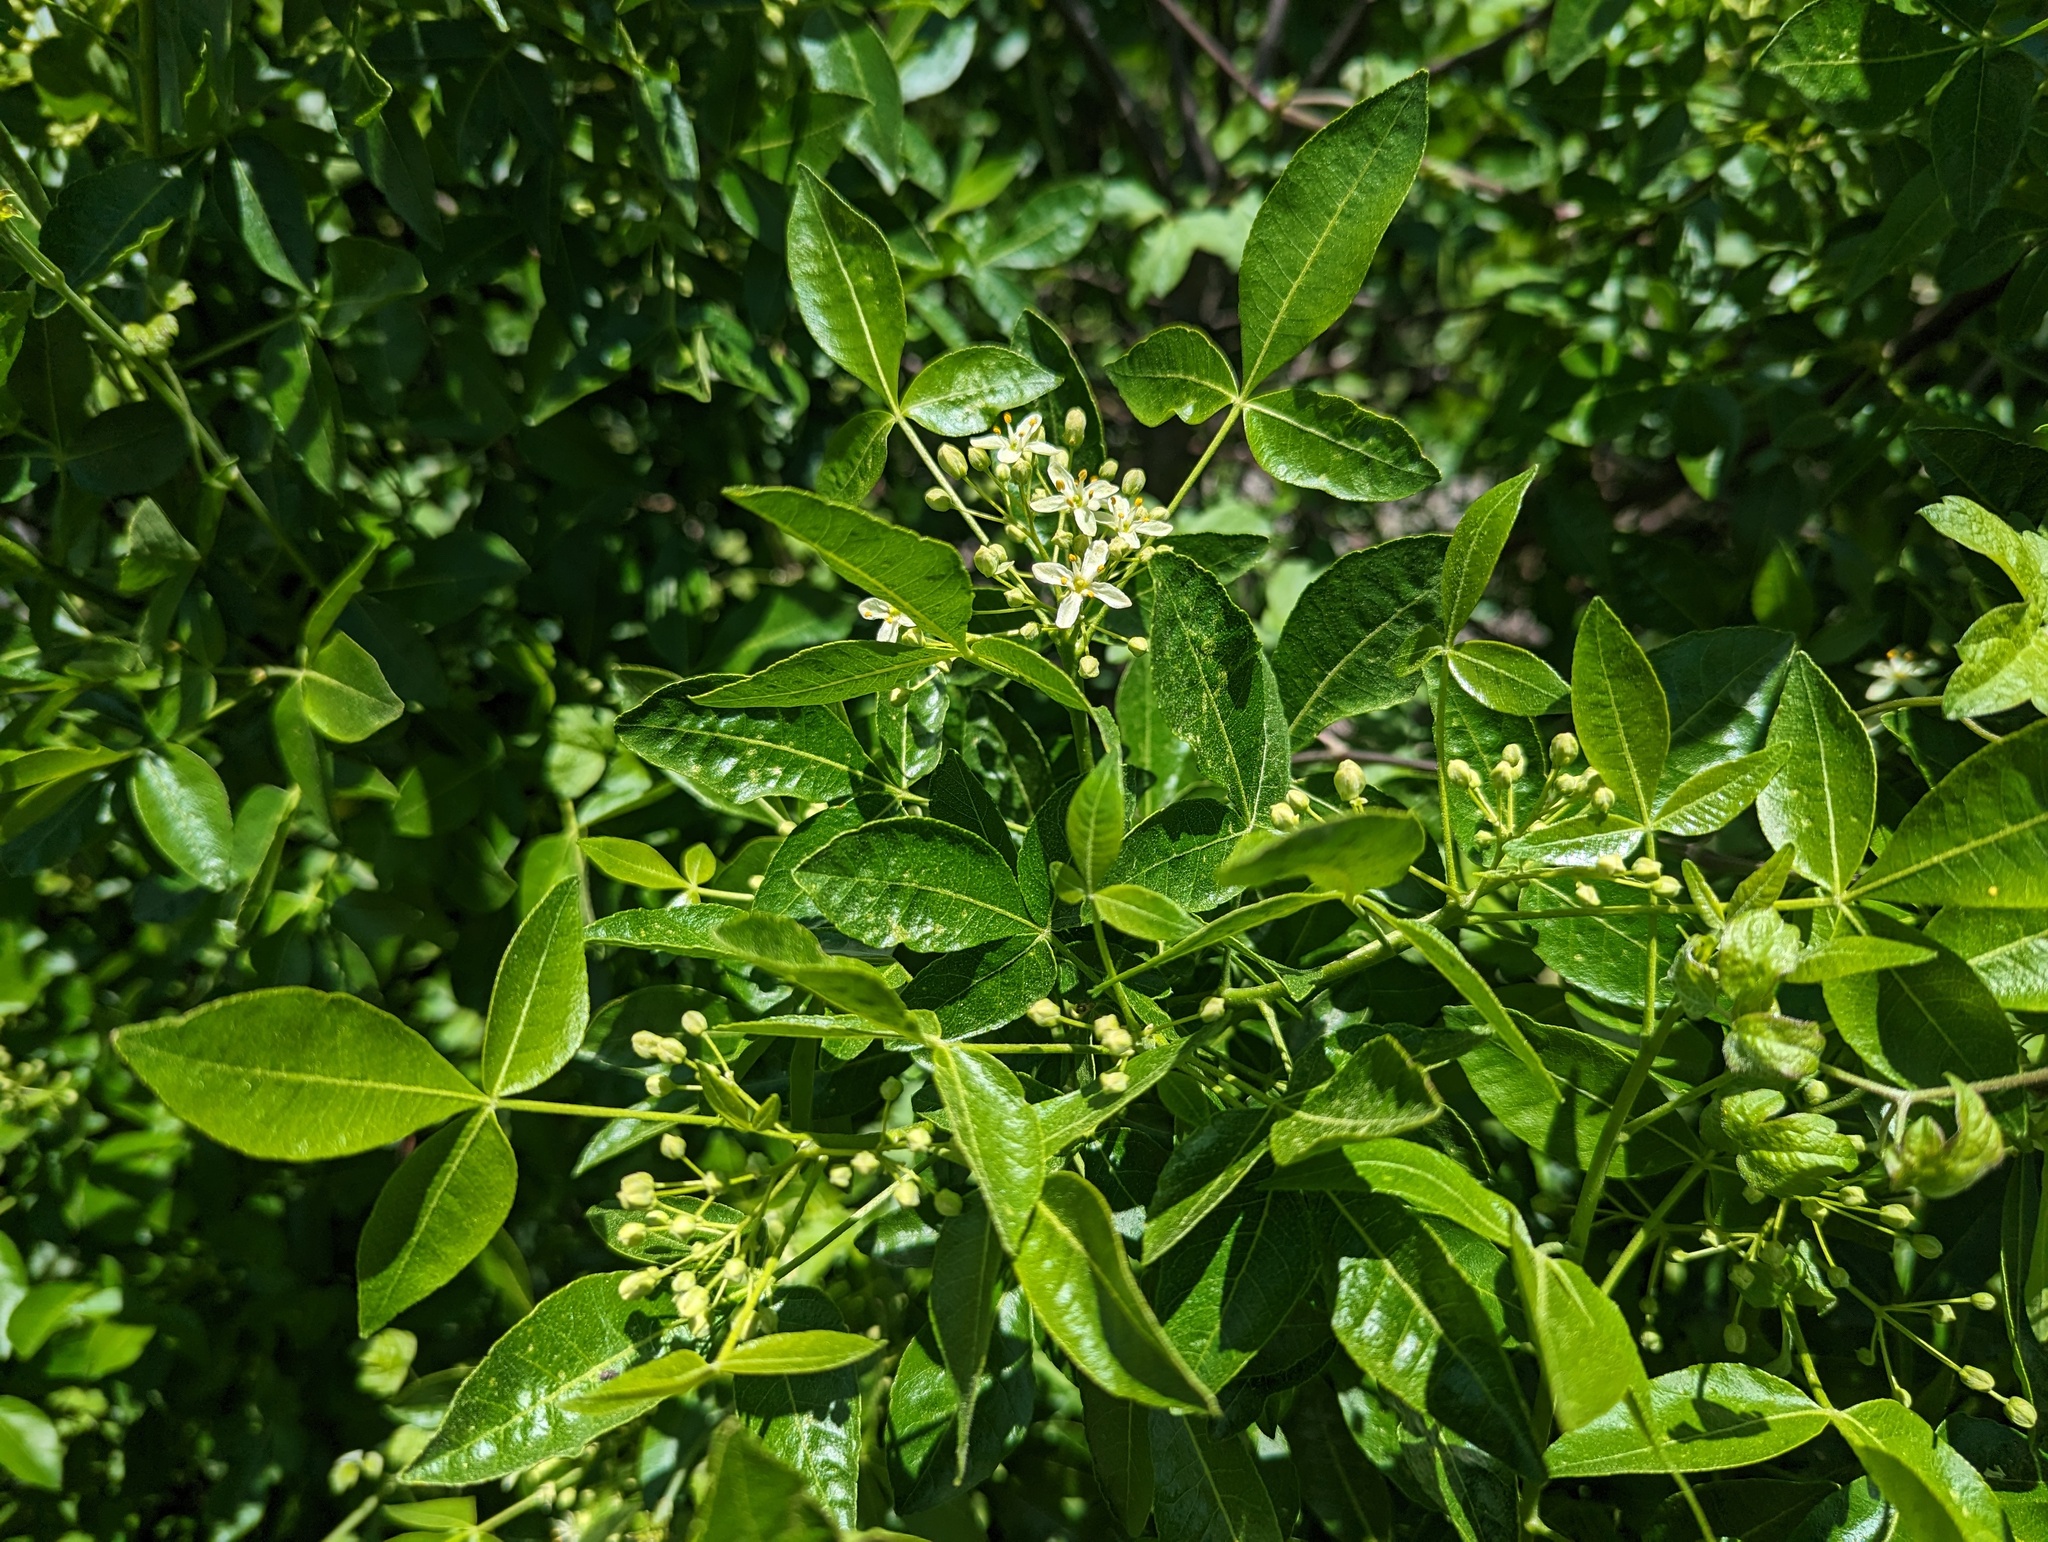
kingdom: Plantae
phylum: Tracheophyta
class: Magnoliopsida
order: Sapindales
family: Rutaceae
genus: Ptelea
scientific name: Ptelea crenulata
